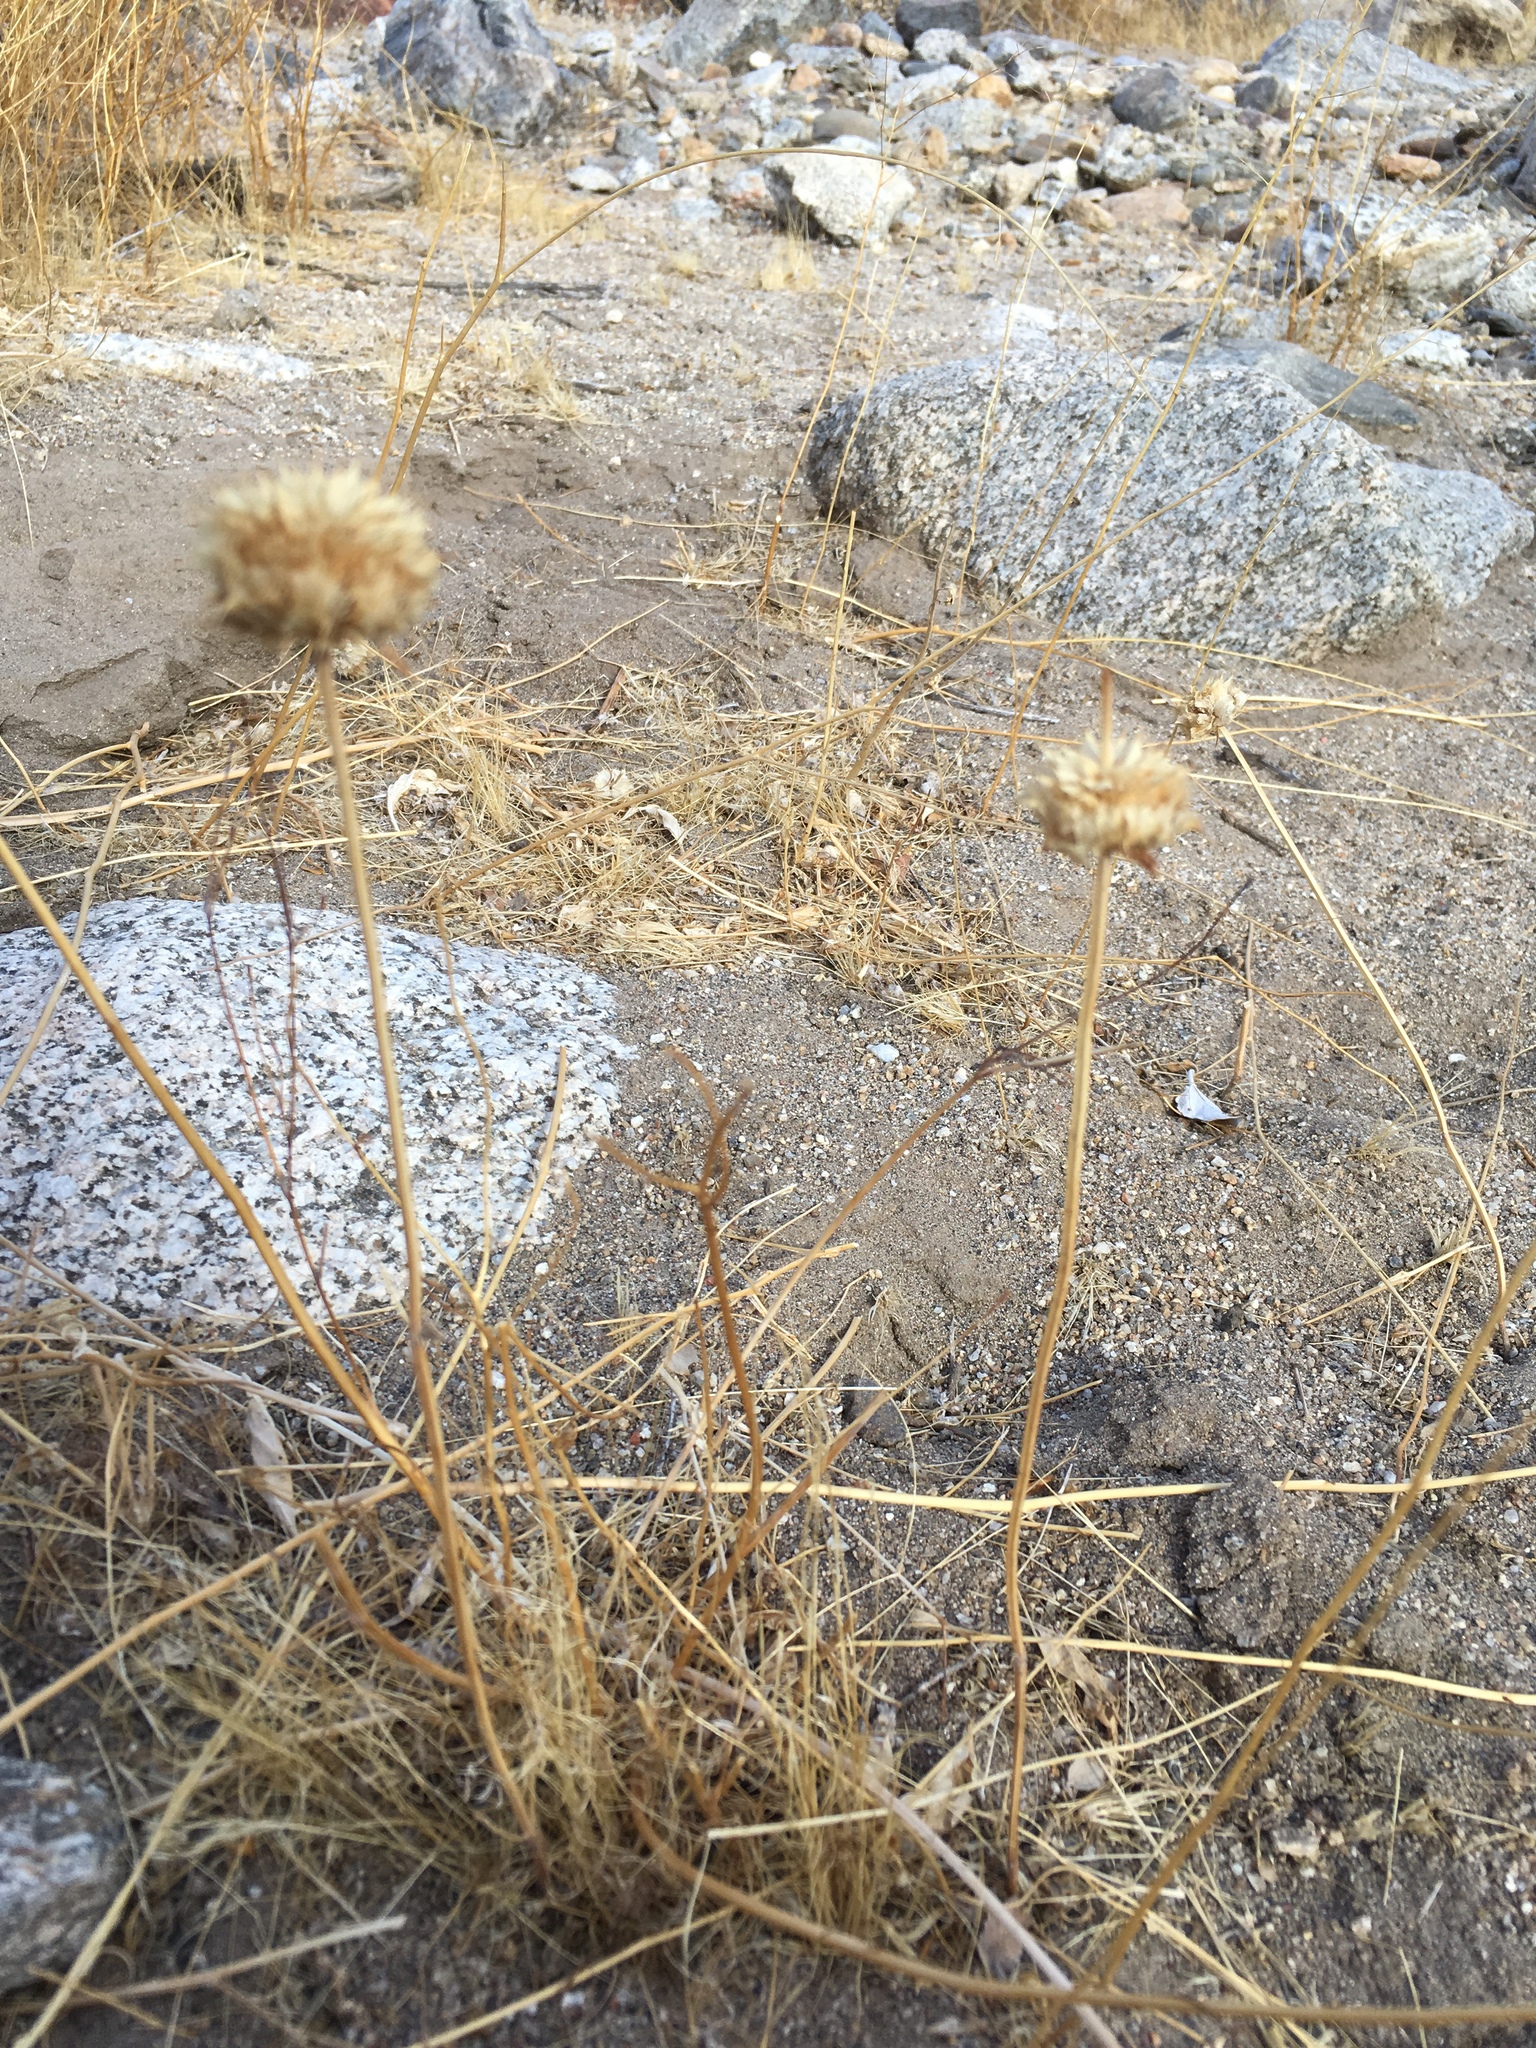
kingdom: Plantae
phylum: Tracheophyta
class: Magnoliopsida
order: Lamiales
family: Lamiaceae
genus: Salvia
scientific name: Salvia columbariae
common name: Chia
